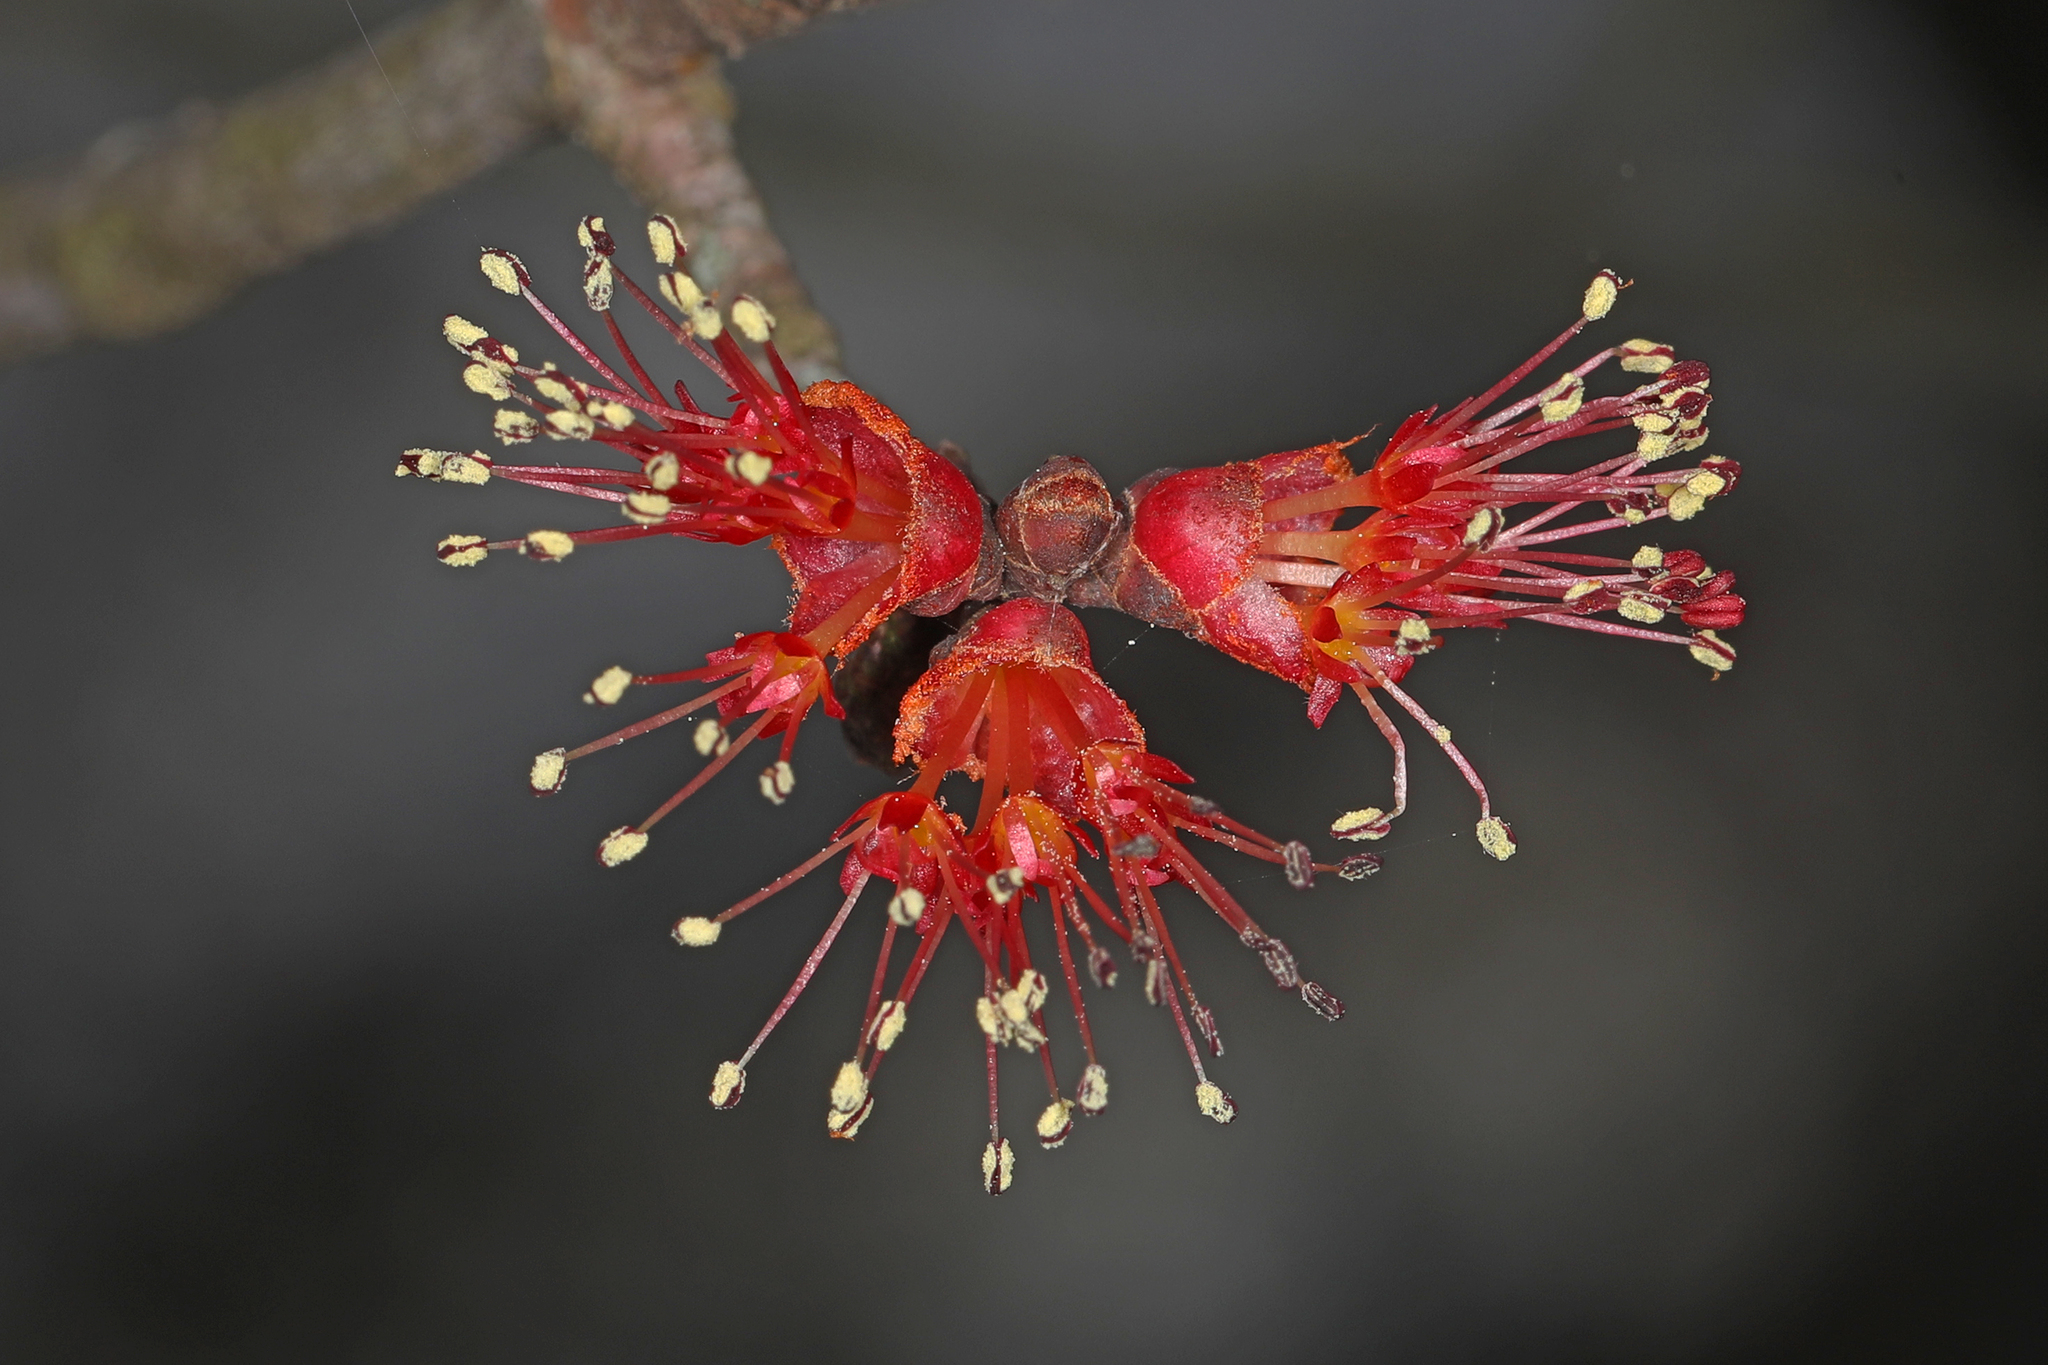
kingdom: Plantae
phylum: Tracheophyta
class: Magnoliopsida
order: Sapindales
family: Sapindaceae
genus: Acer
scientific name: Acer rubrum
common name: Red maple
